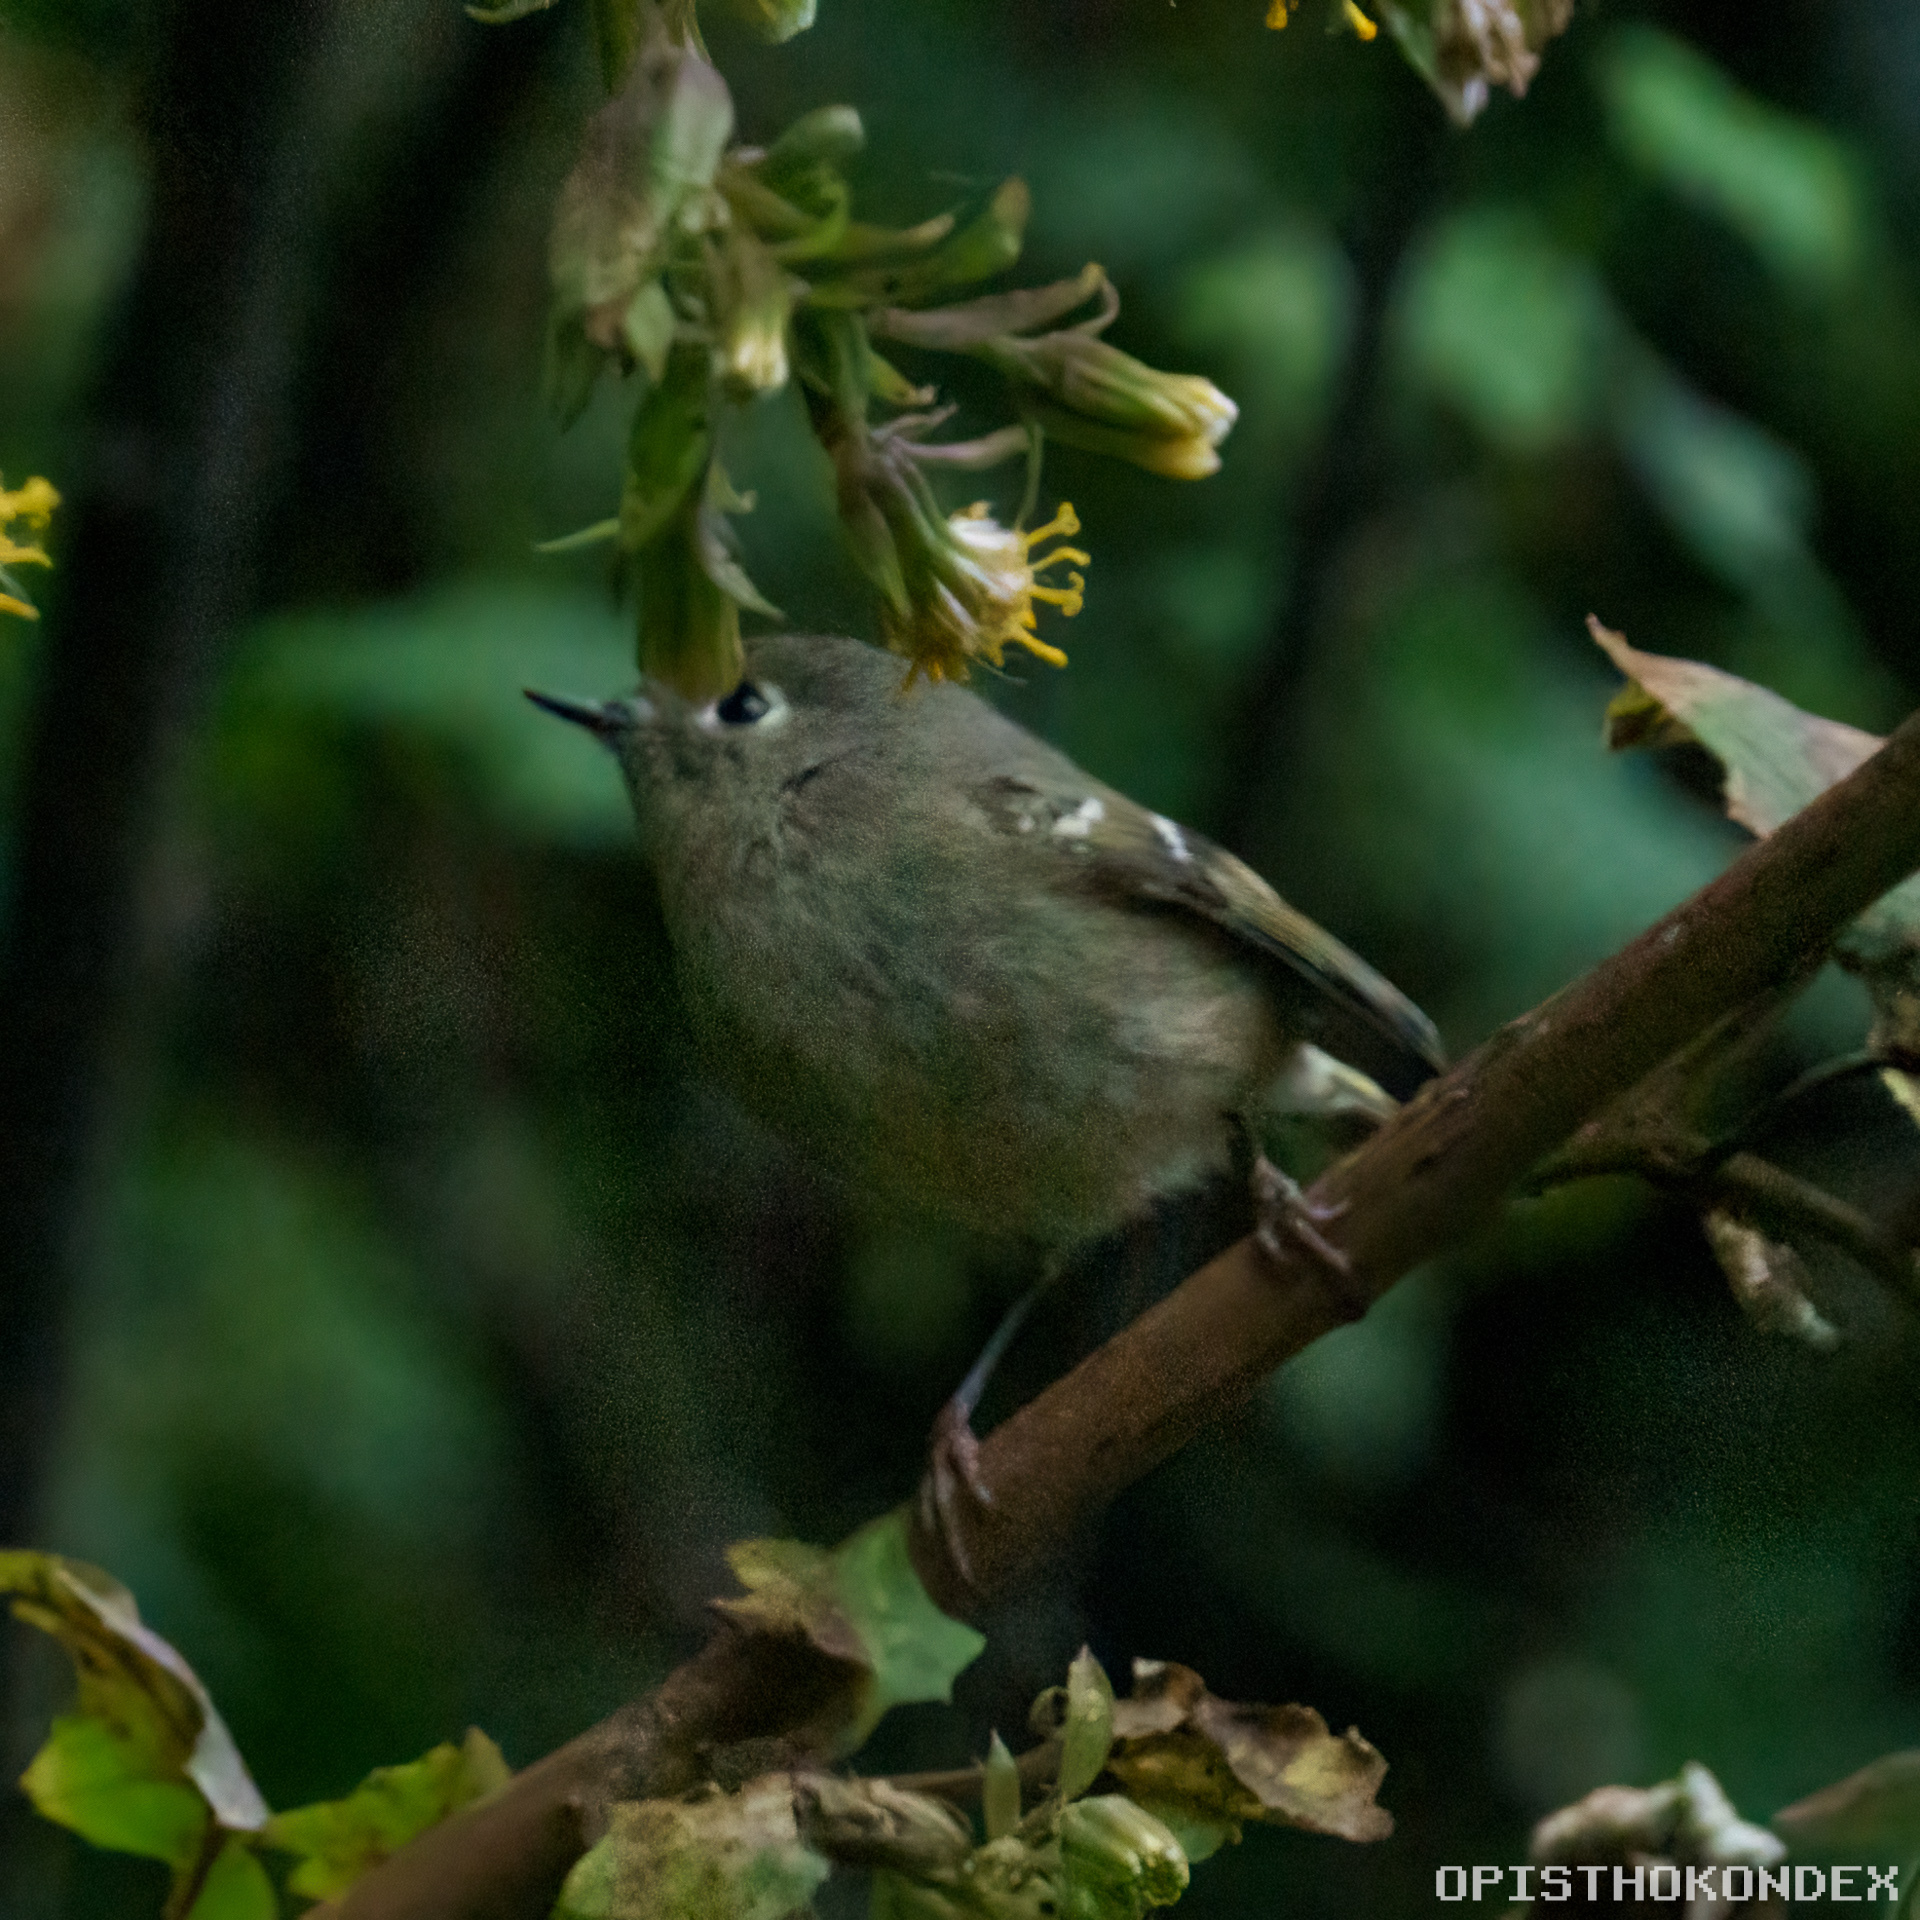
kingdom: Animalia
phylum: Chordata
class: Aves
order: Passeriformes
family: Regulidae
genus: Regulus
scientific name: Regulus calendula
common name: Ruby-crowned kinglet
